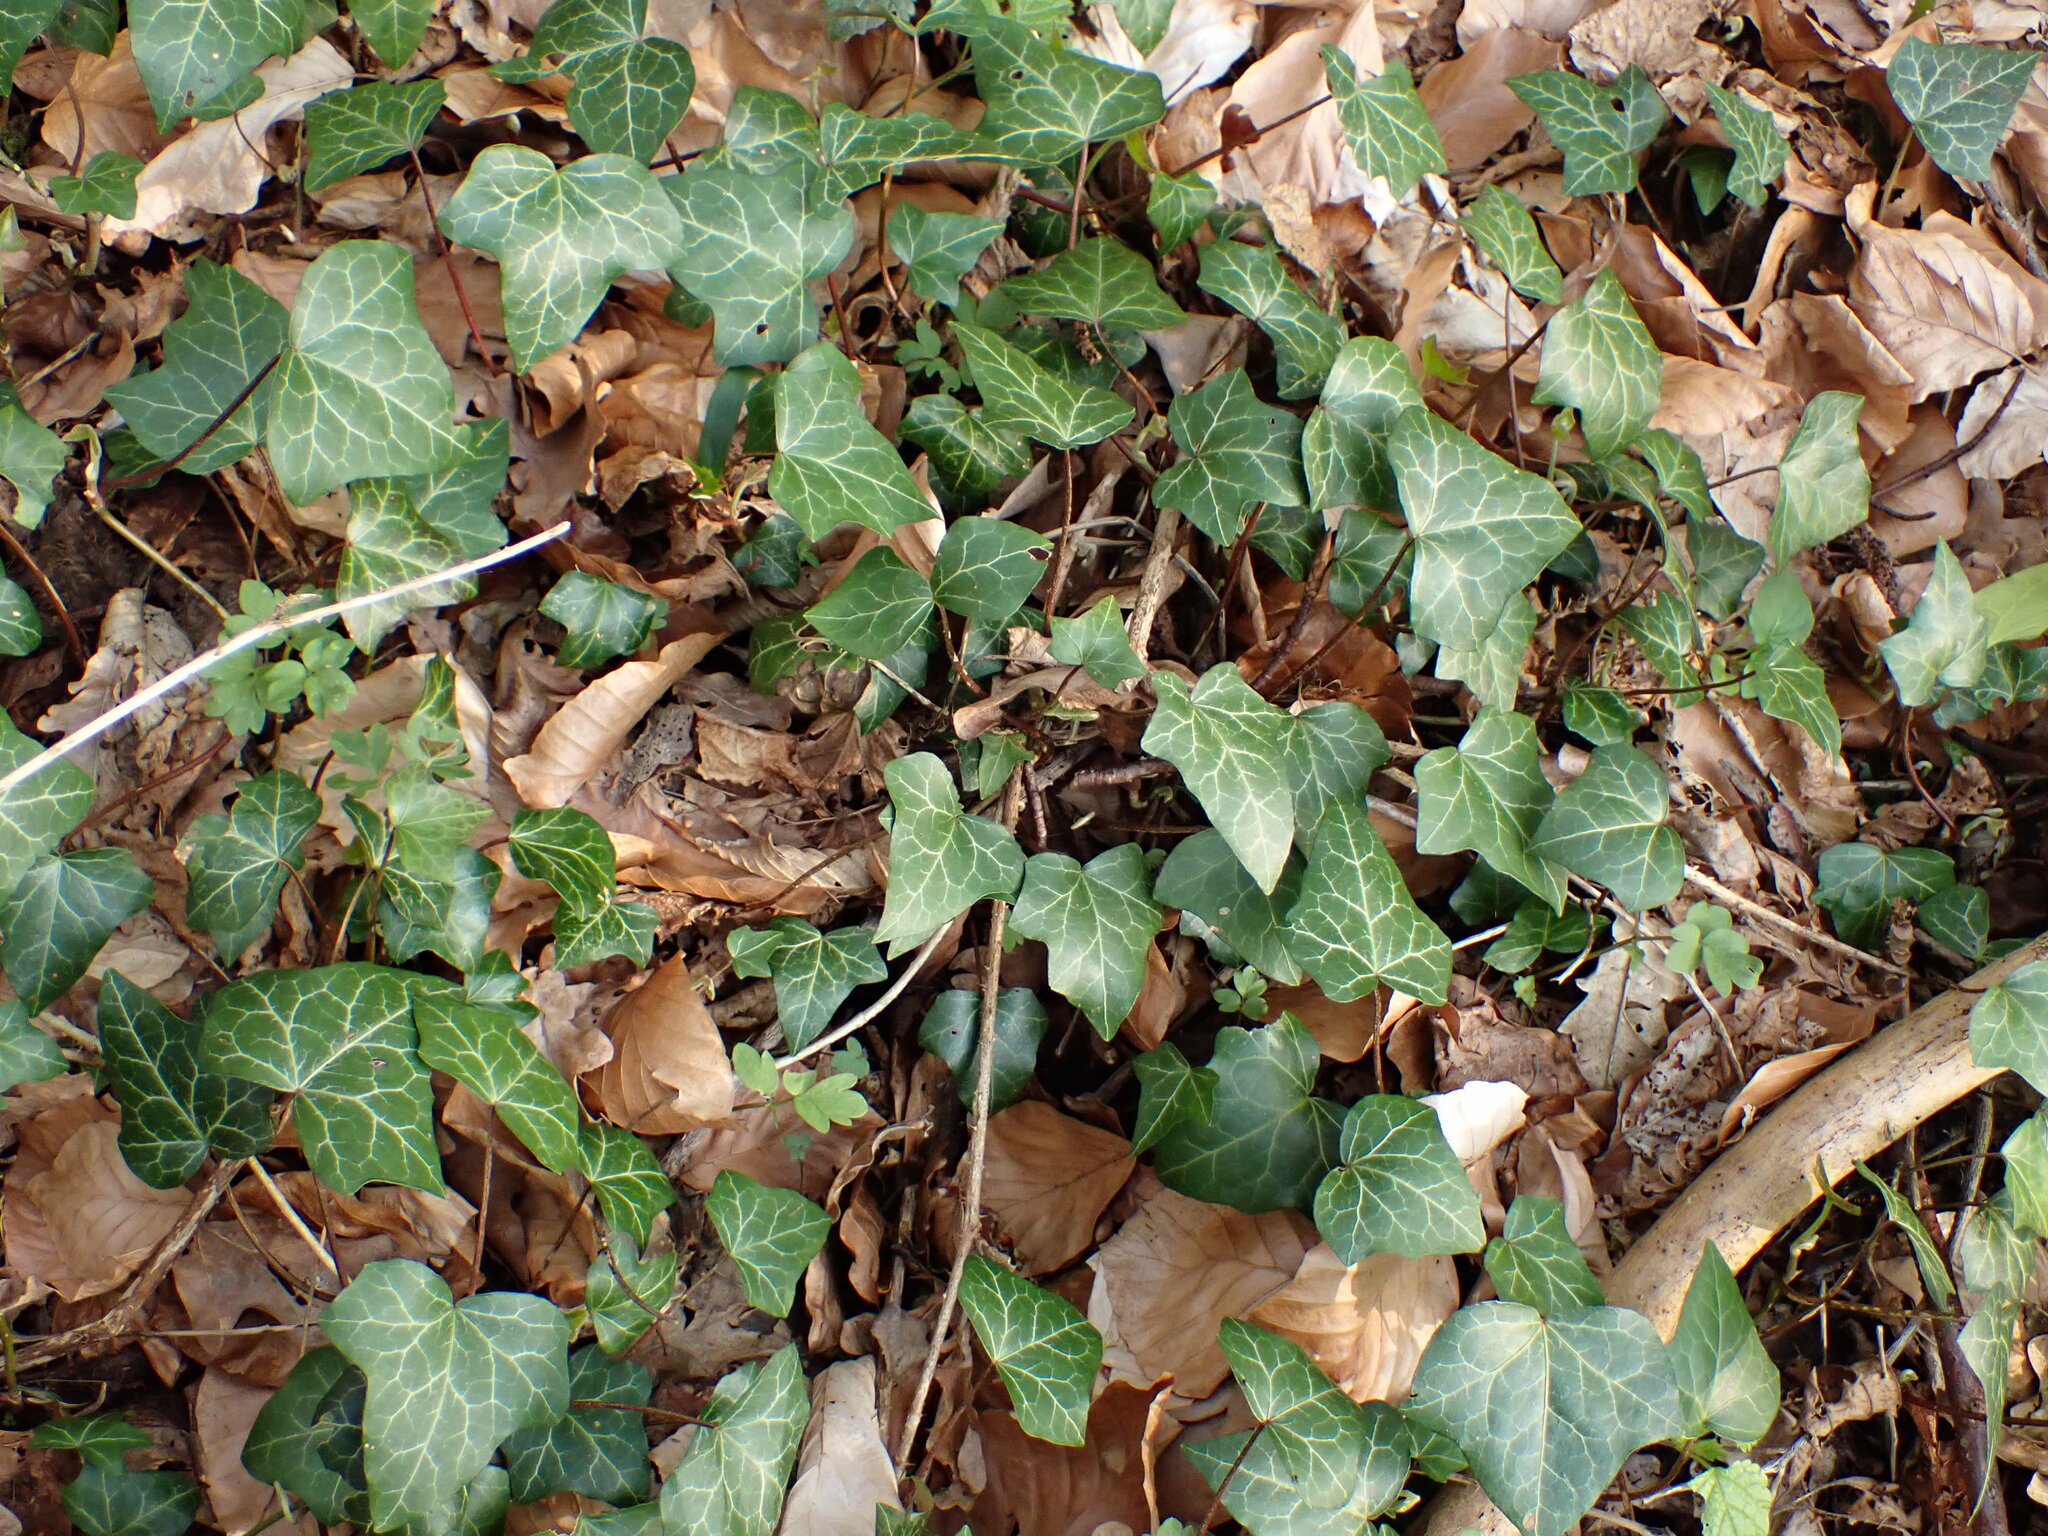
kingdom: Plantae
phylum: Tracheophyta
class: Magnoliopsida
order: Apiales
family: Araliaceae
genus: Hedera
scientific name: Hedera helix
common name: Ivy
